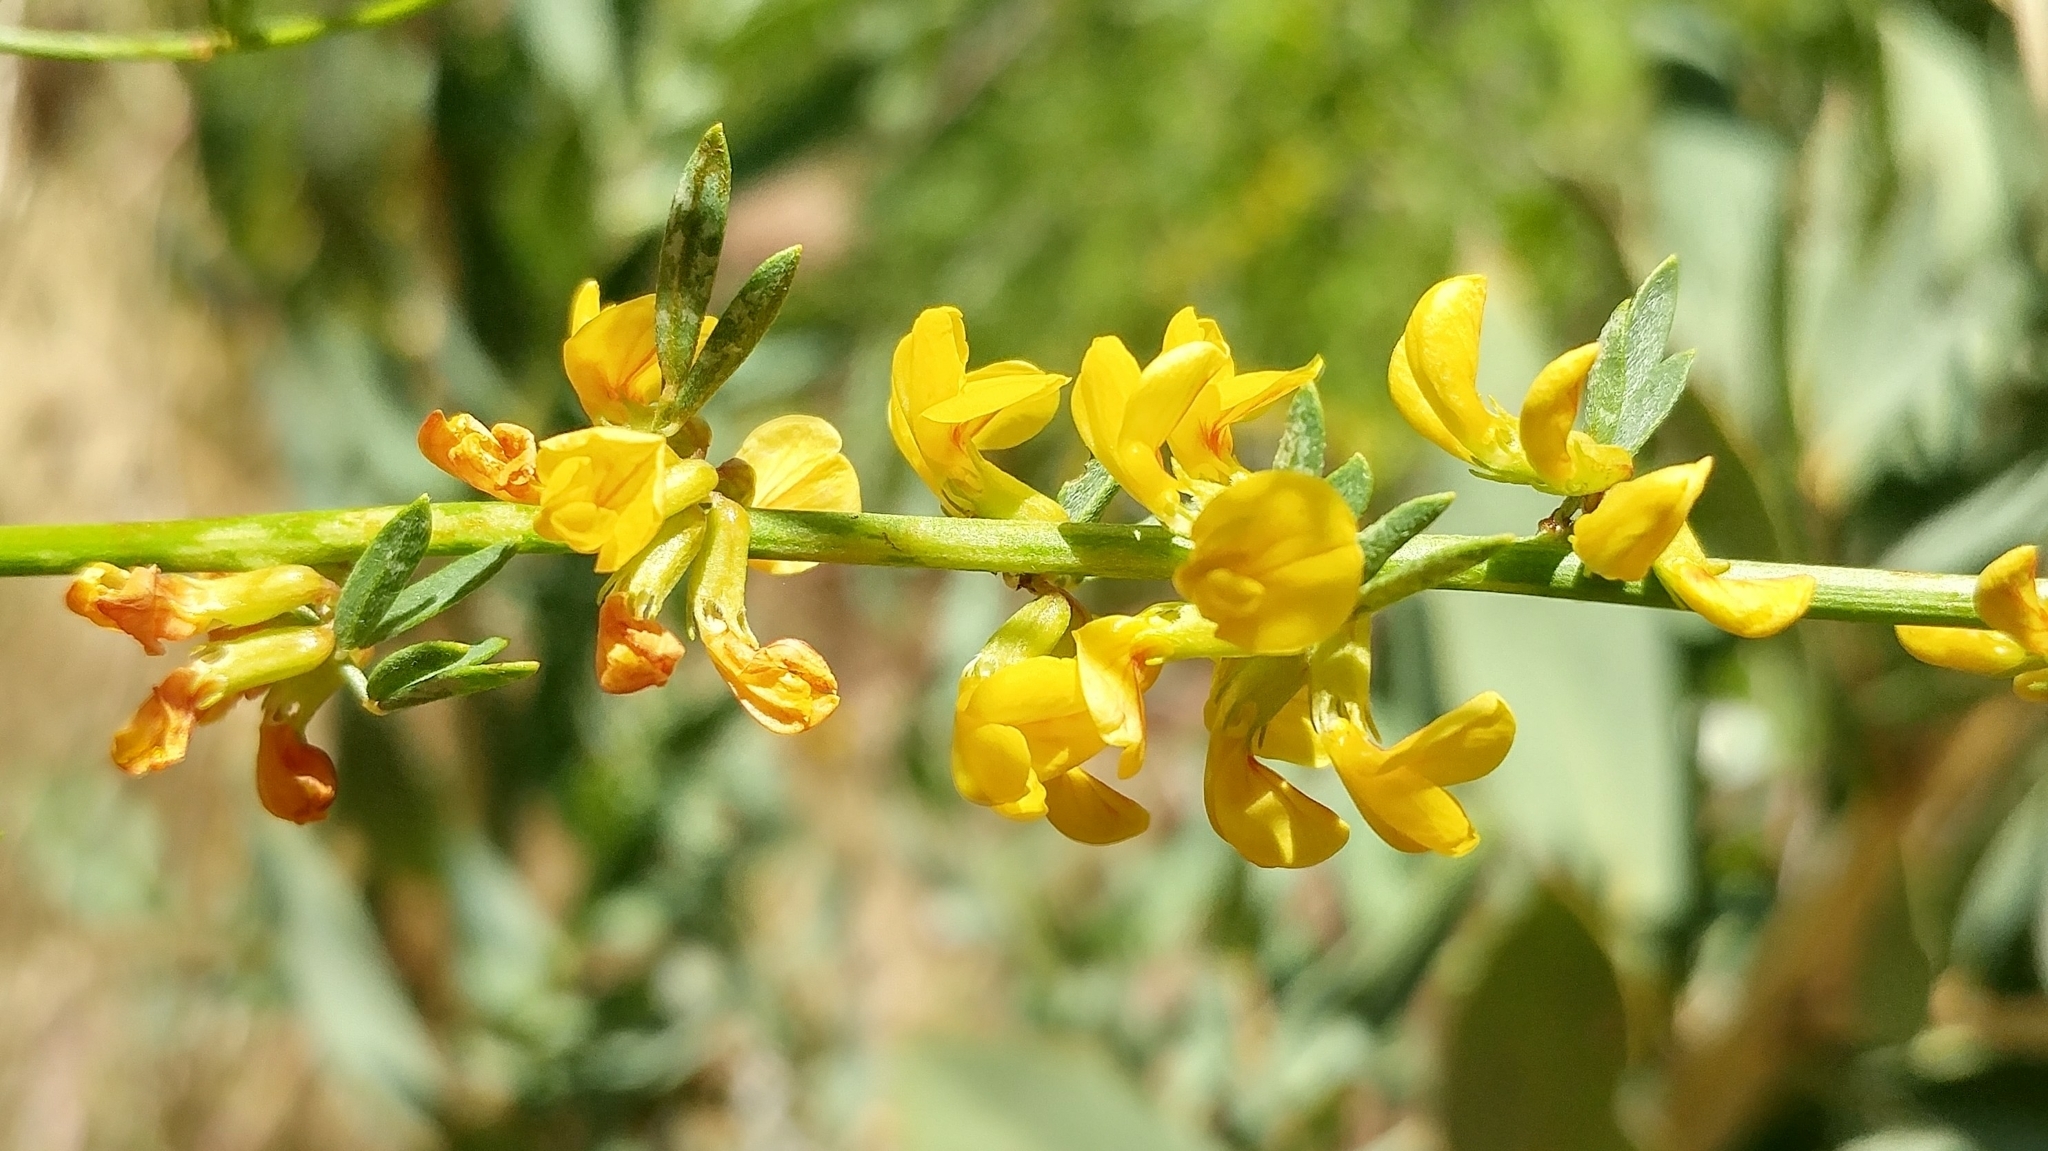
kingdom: Plantae
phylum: Tracheophyta
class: Magnoliopsida
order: Fabales
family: Fabaceae
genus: Acmispon
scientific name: Acmispon glaber
